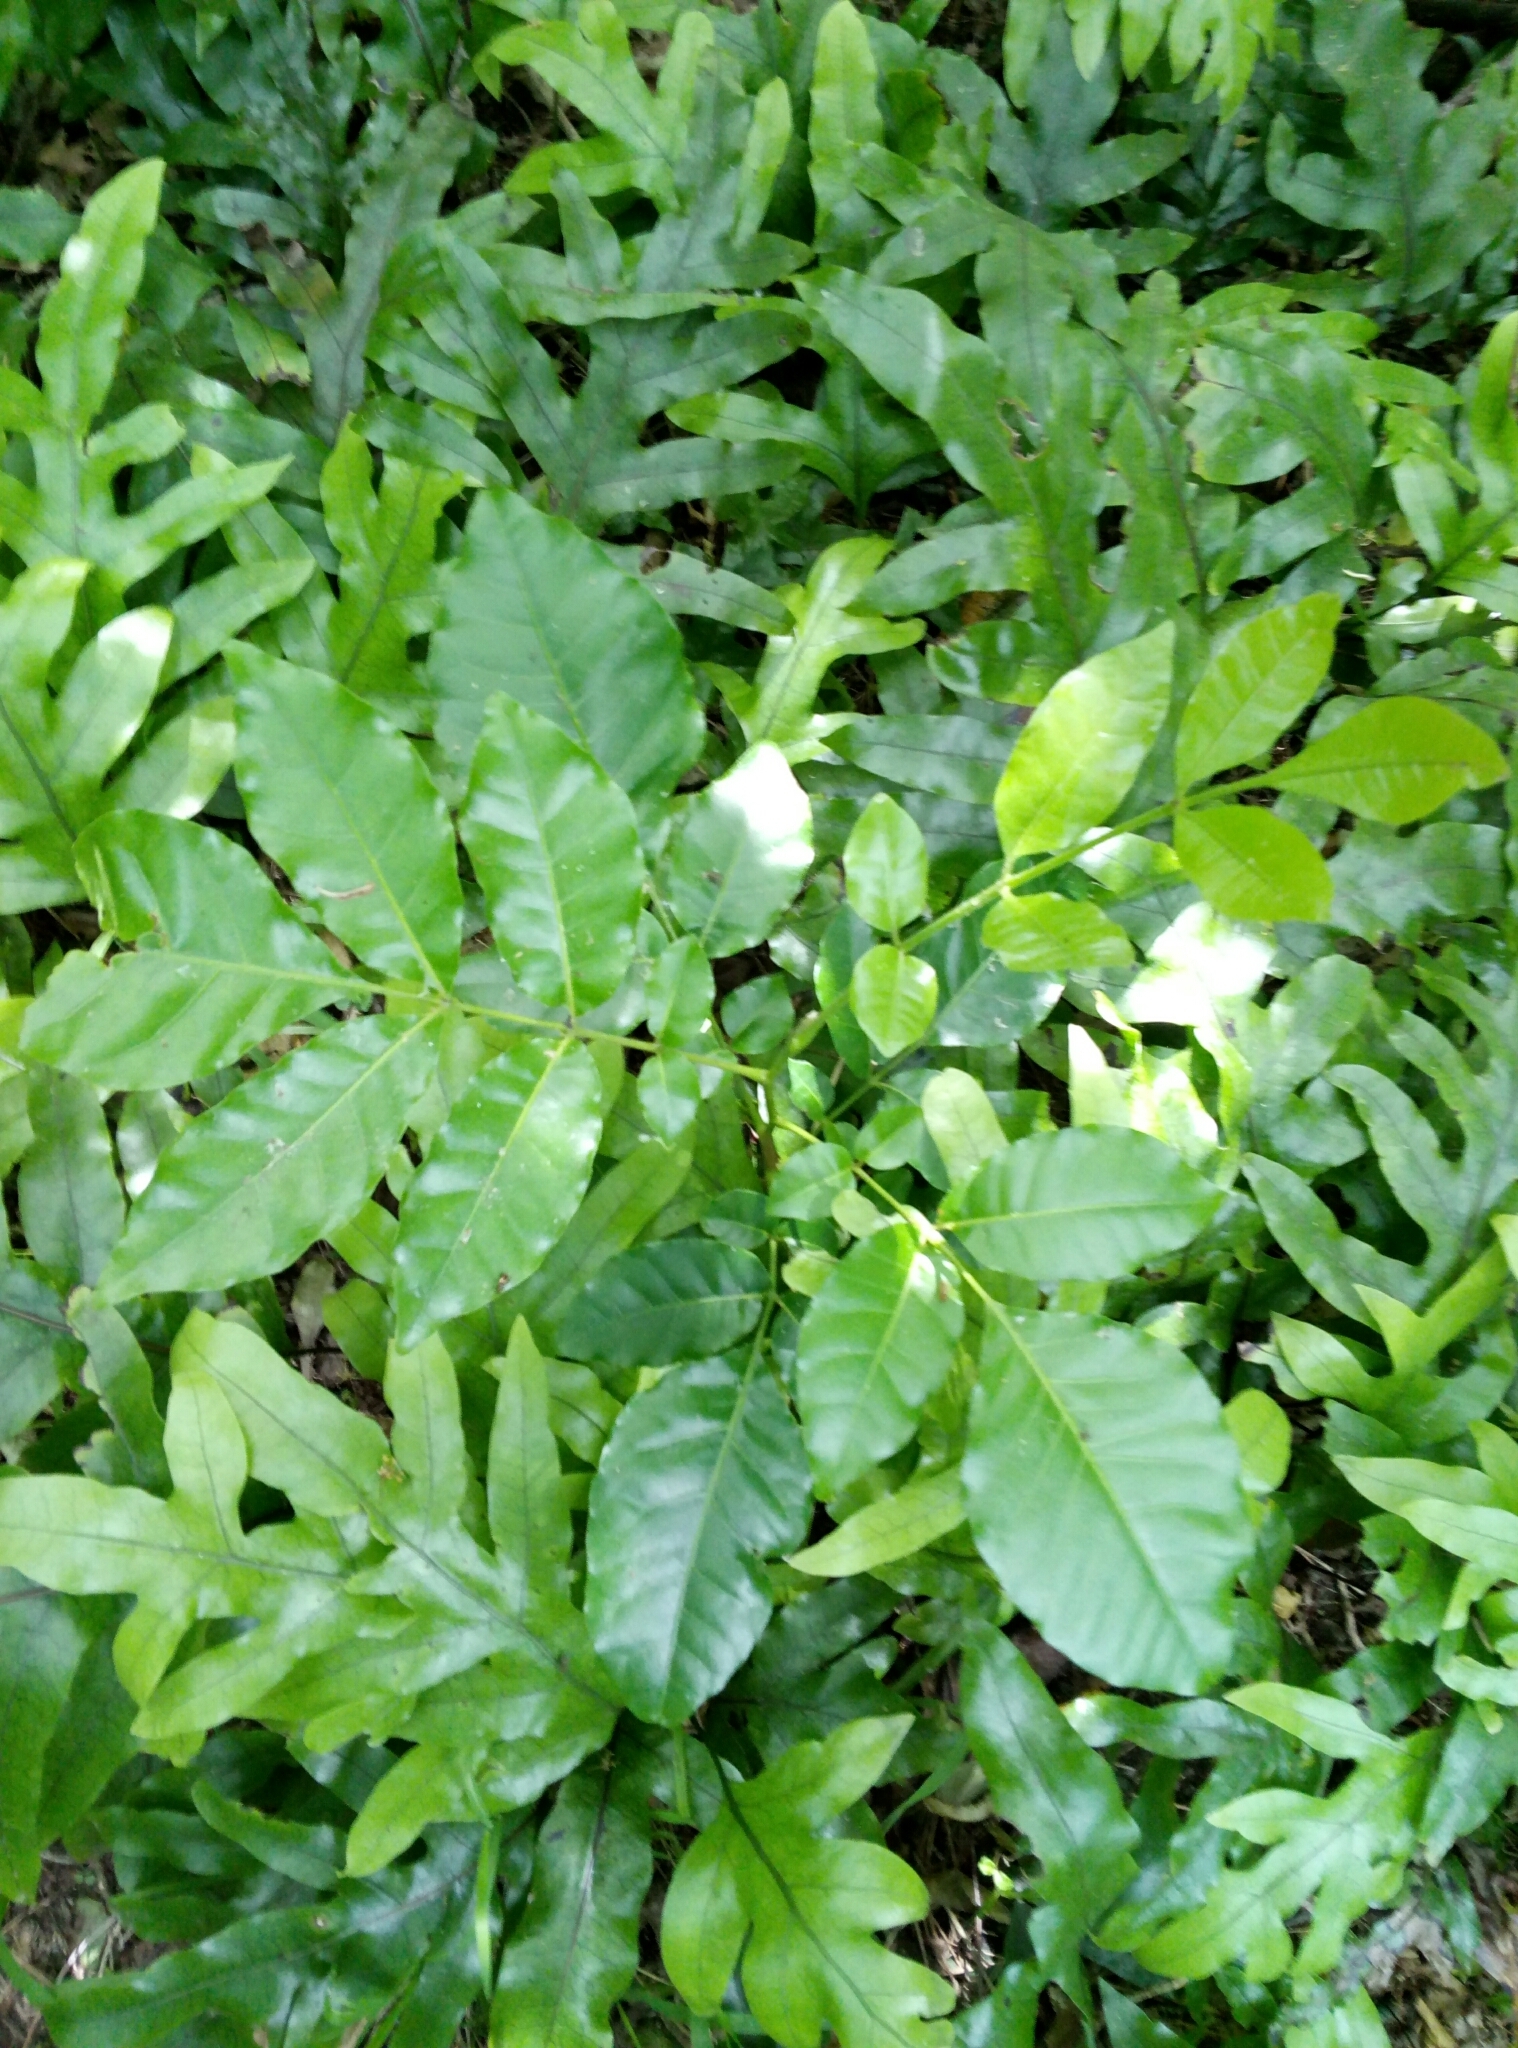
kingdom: Plantae
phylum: Tracheophyta
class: Magnoliopsida
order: Sapindales
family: Meliaceae
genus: Didymocheton
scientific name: Didymocheton spectabilis
